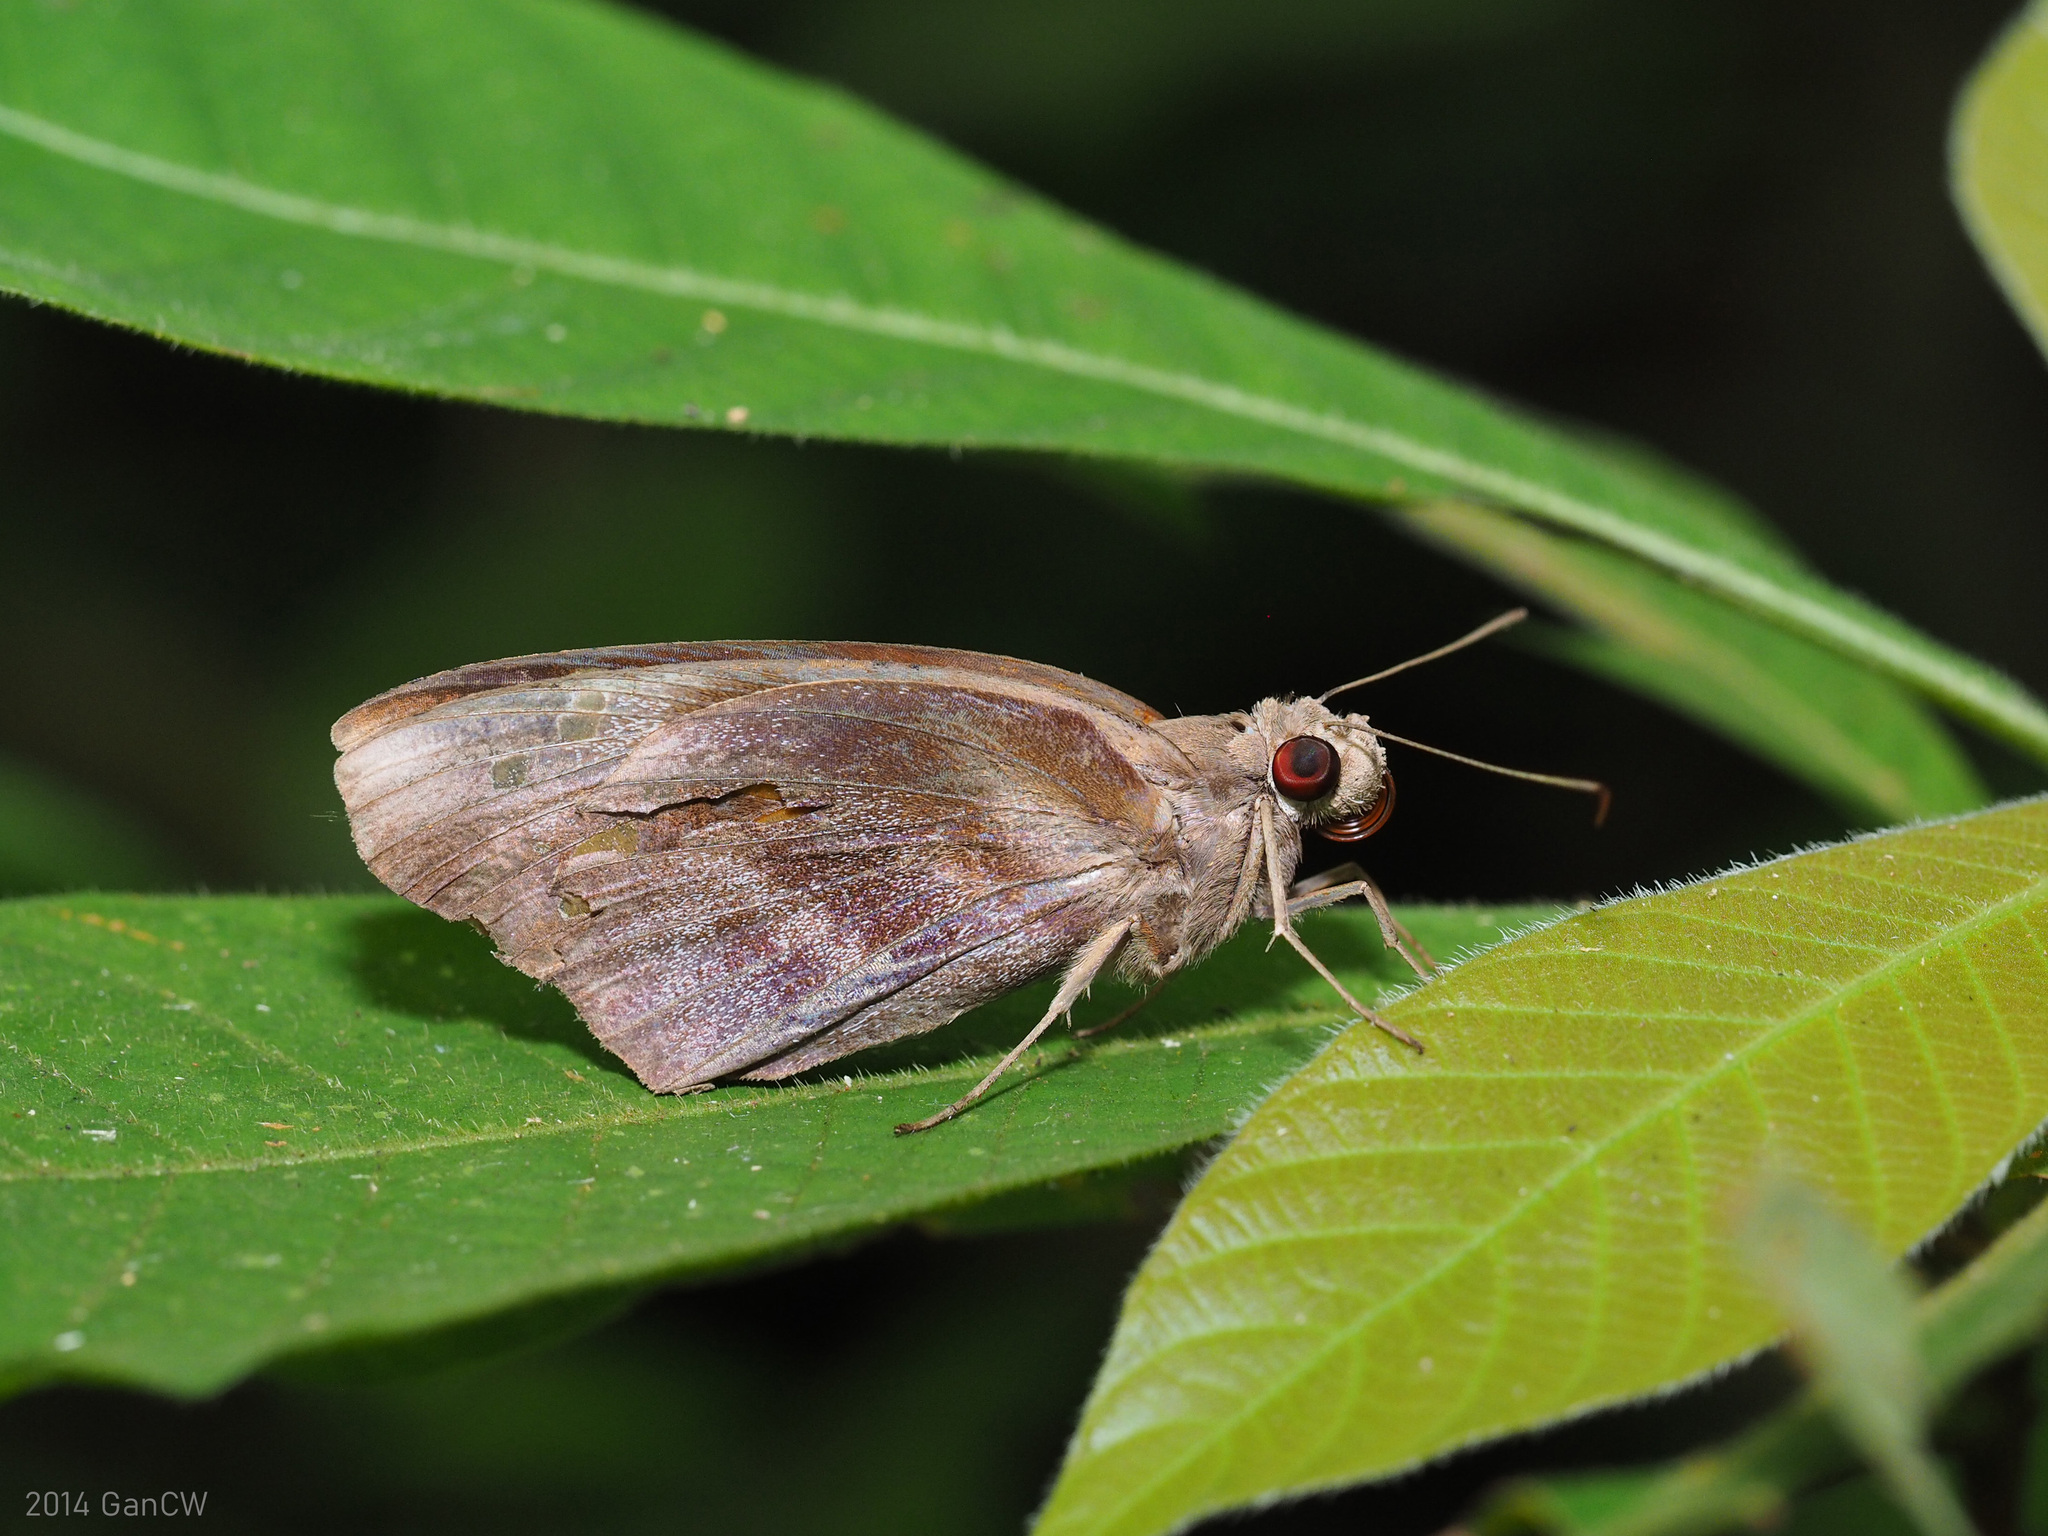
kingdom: Animalia
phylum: Arthropoda
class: Insecta
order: Lepidoptera
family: Hesperiidae
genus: Gangara
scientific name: Gangara thyrsis
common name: Giant redeye
